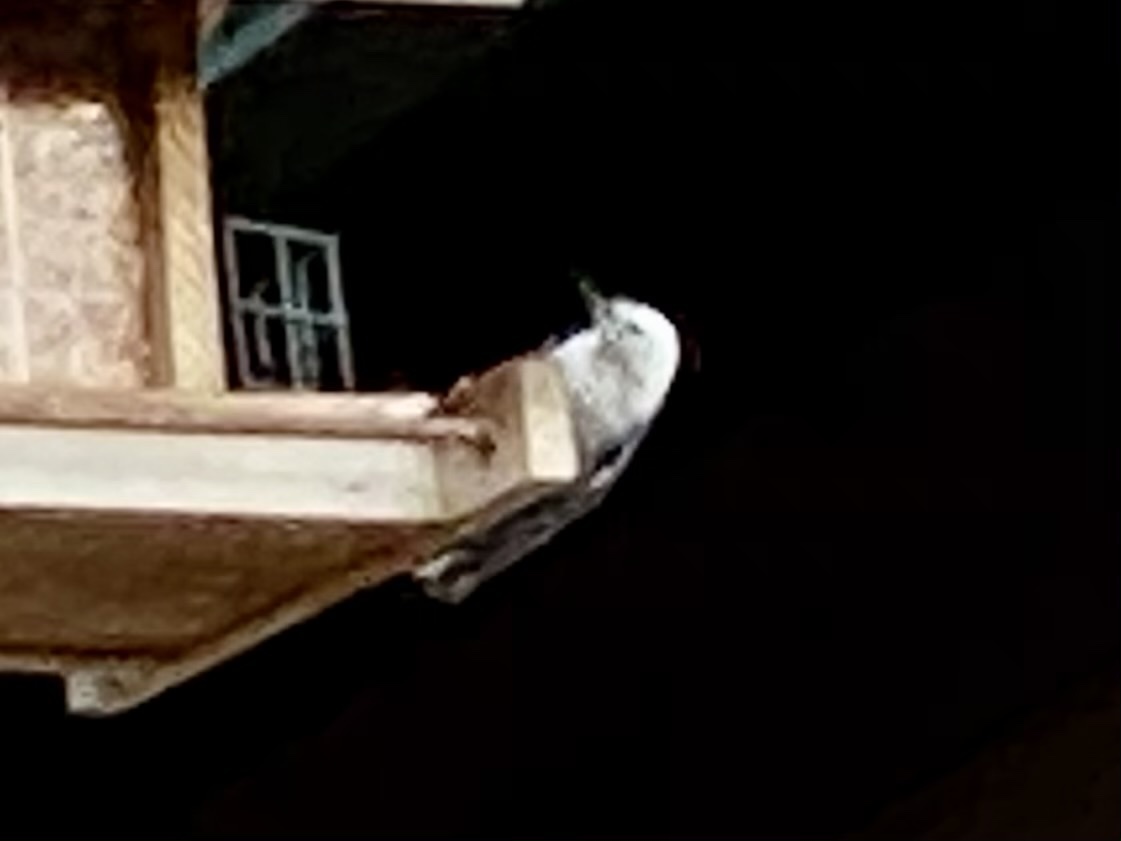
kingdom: Animalia
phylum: Chordata
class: Aves
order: Passeriformes
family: Sittidae
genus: Sitta
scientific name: Sitta carolinensis
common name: White-breasted nuthatch
